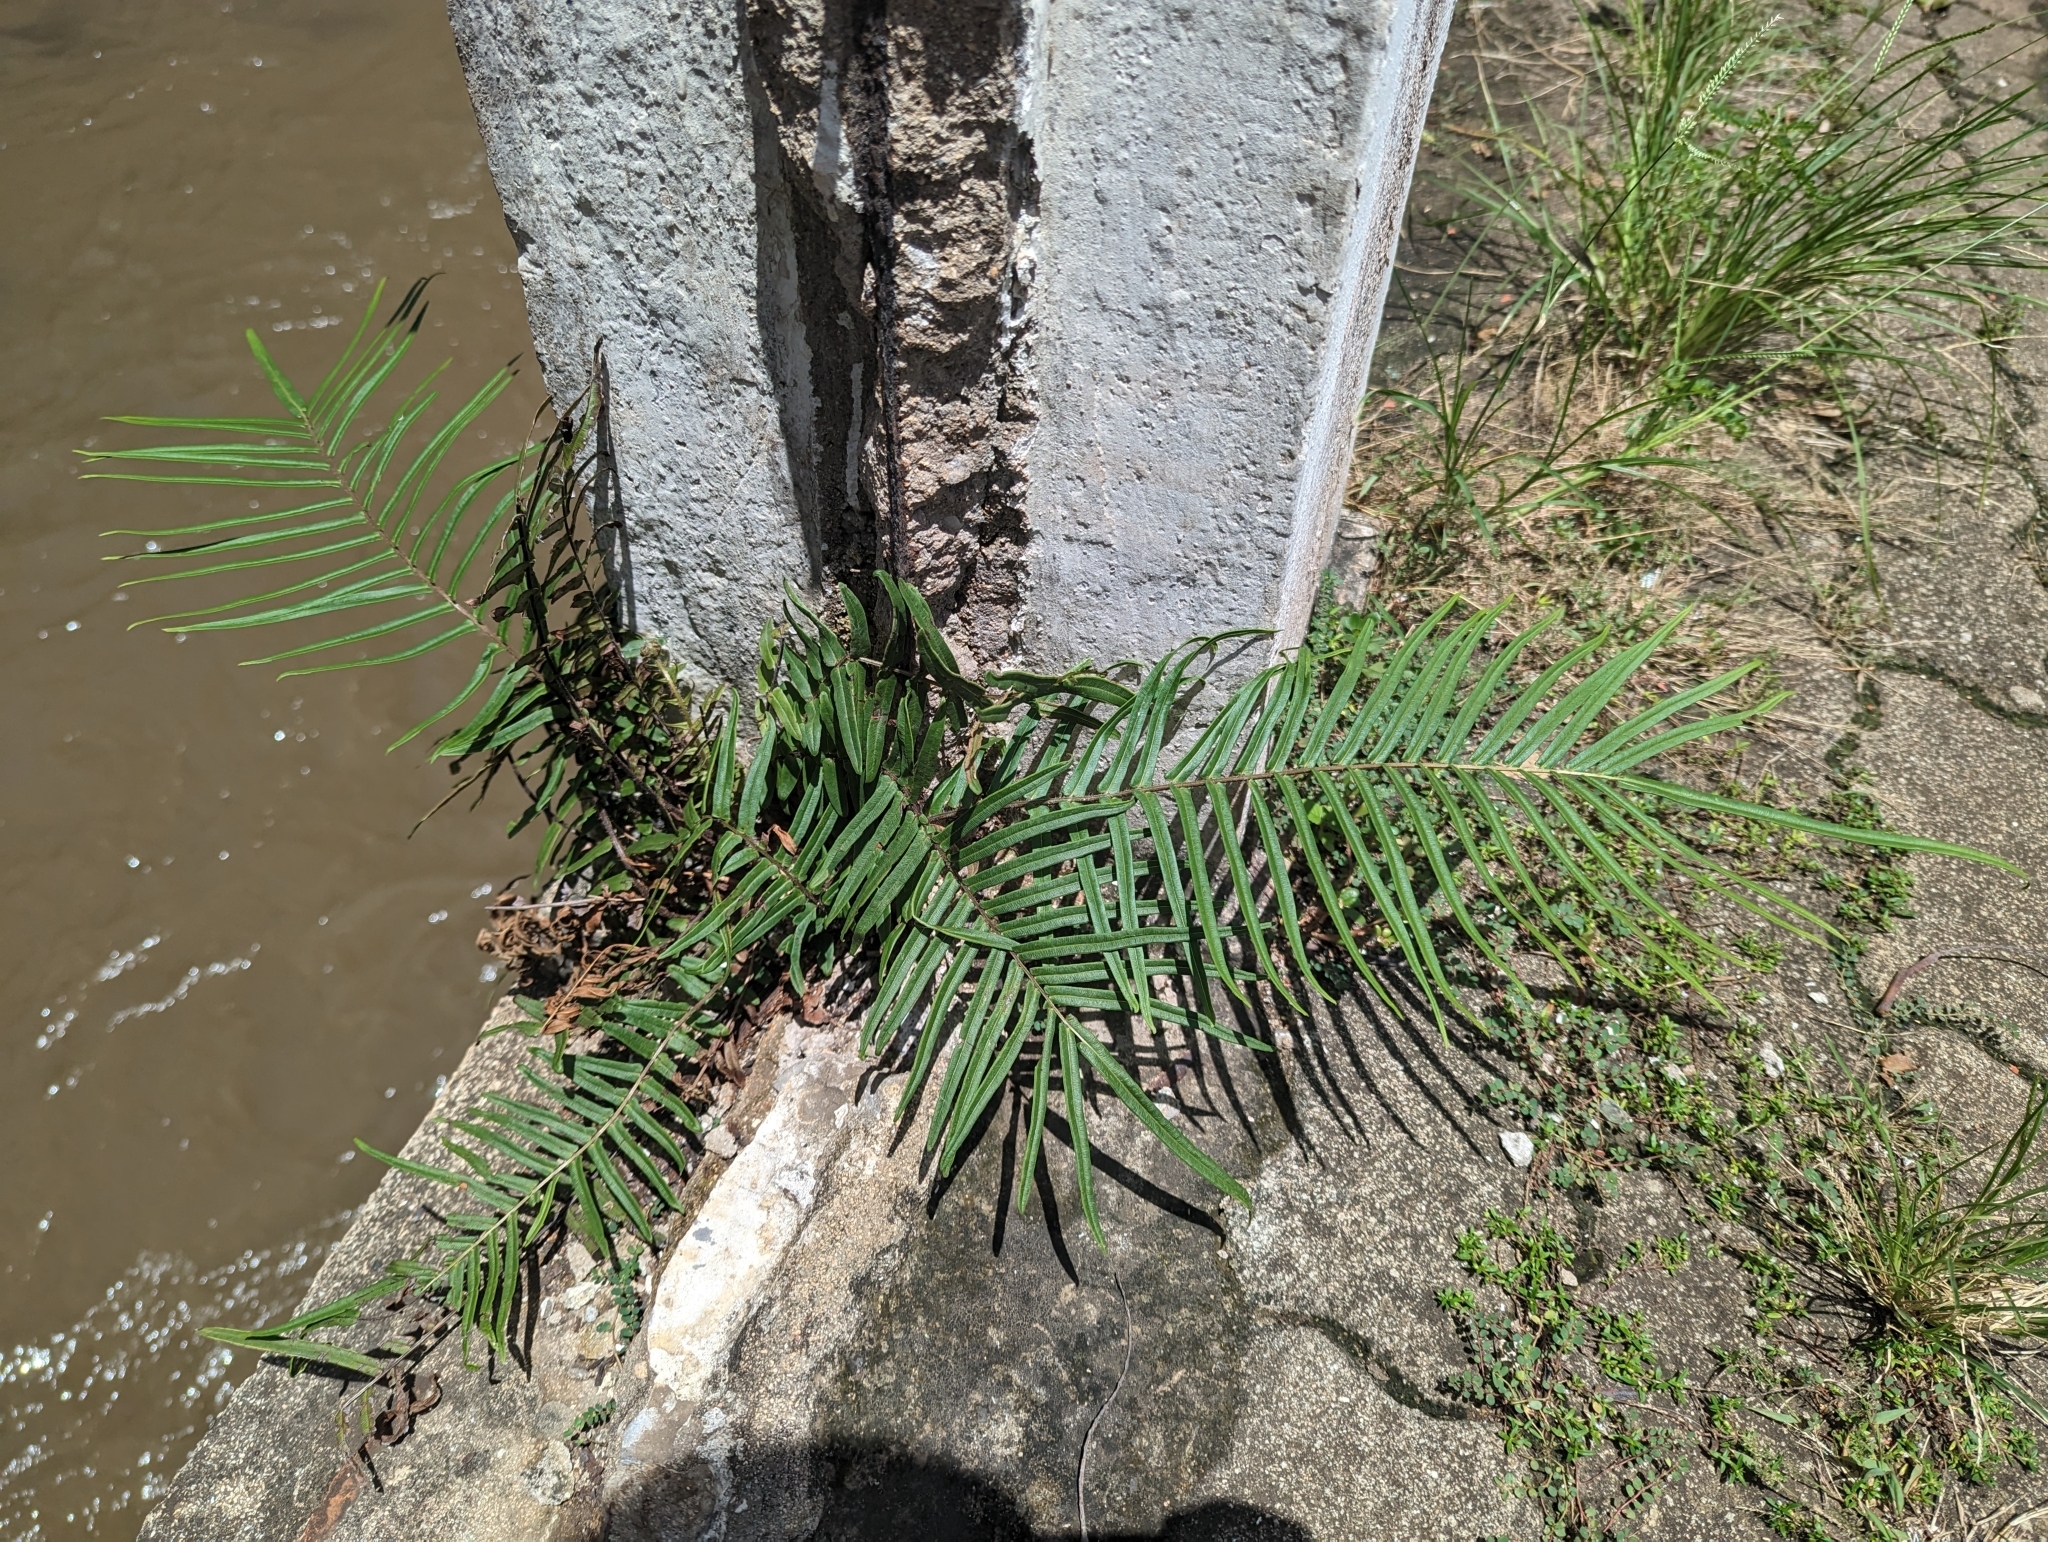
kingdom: Plantae
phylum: Tracheophyta
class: Polypodiopsida
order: Polypodiales
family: Pteridaceae
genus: Pteris
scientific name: Pteris vittata
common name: Ladder brake
